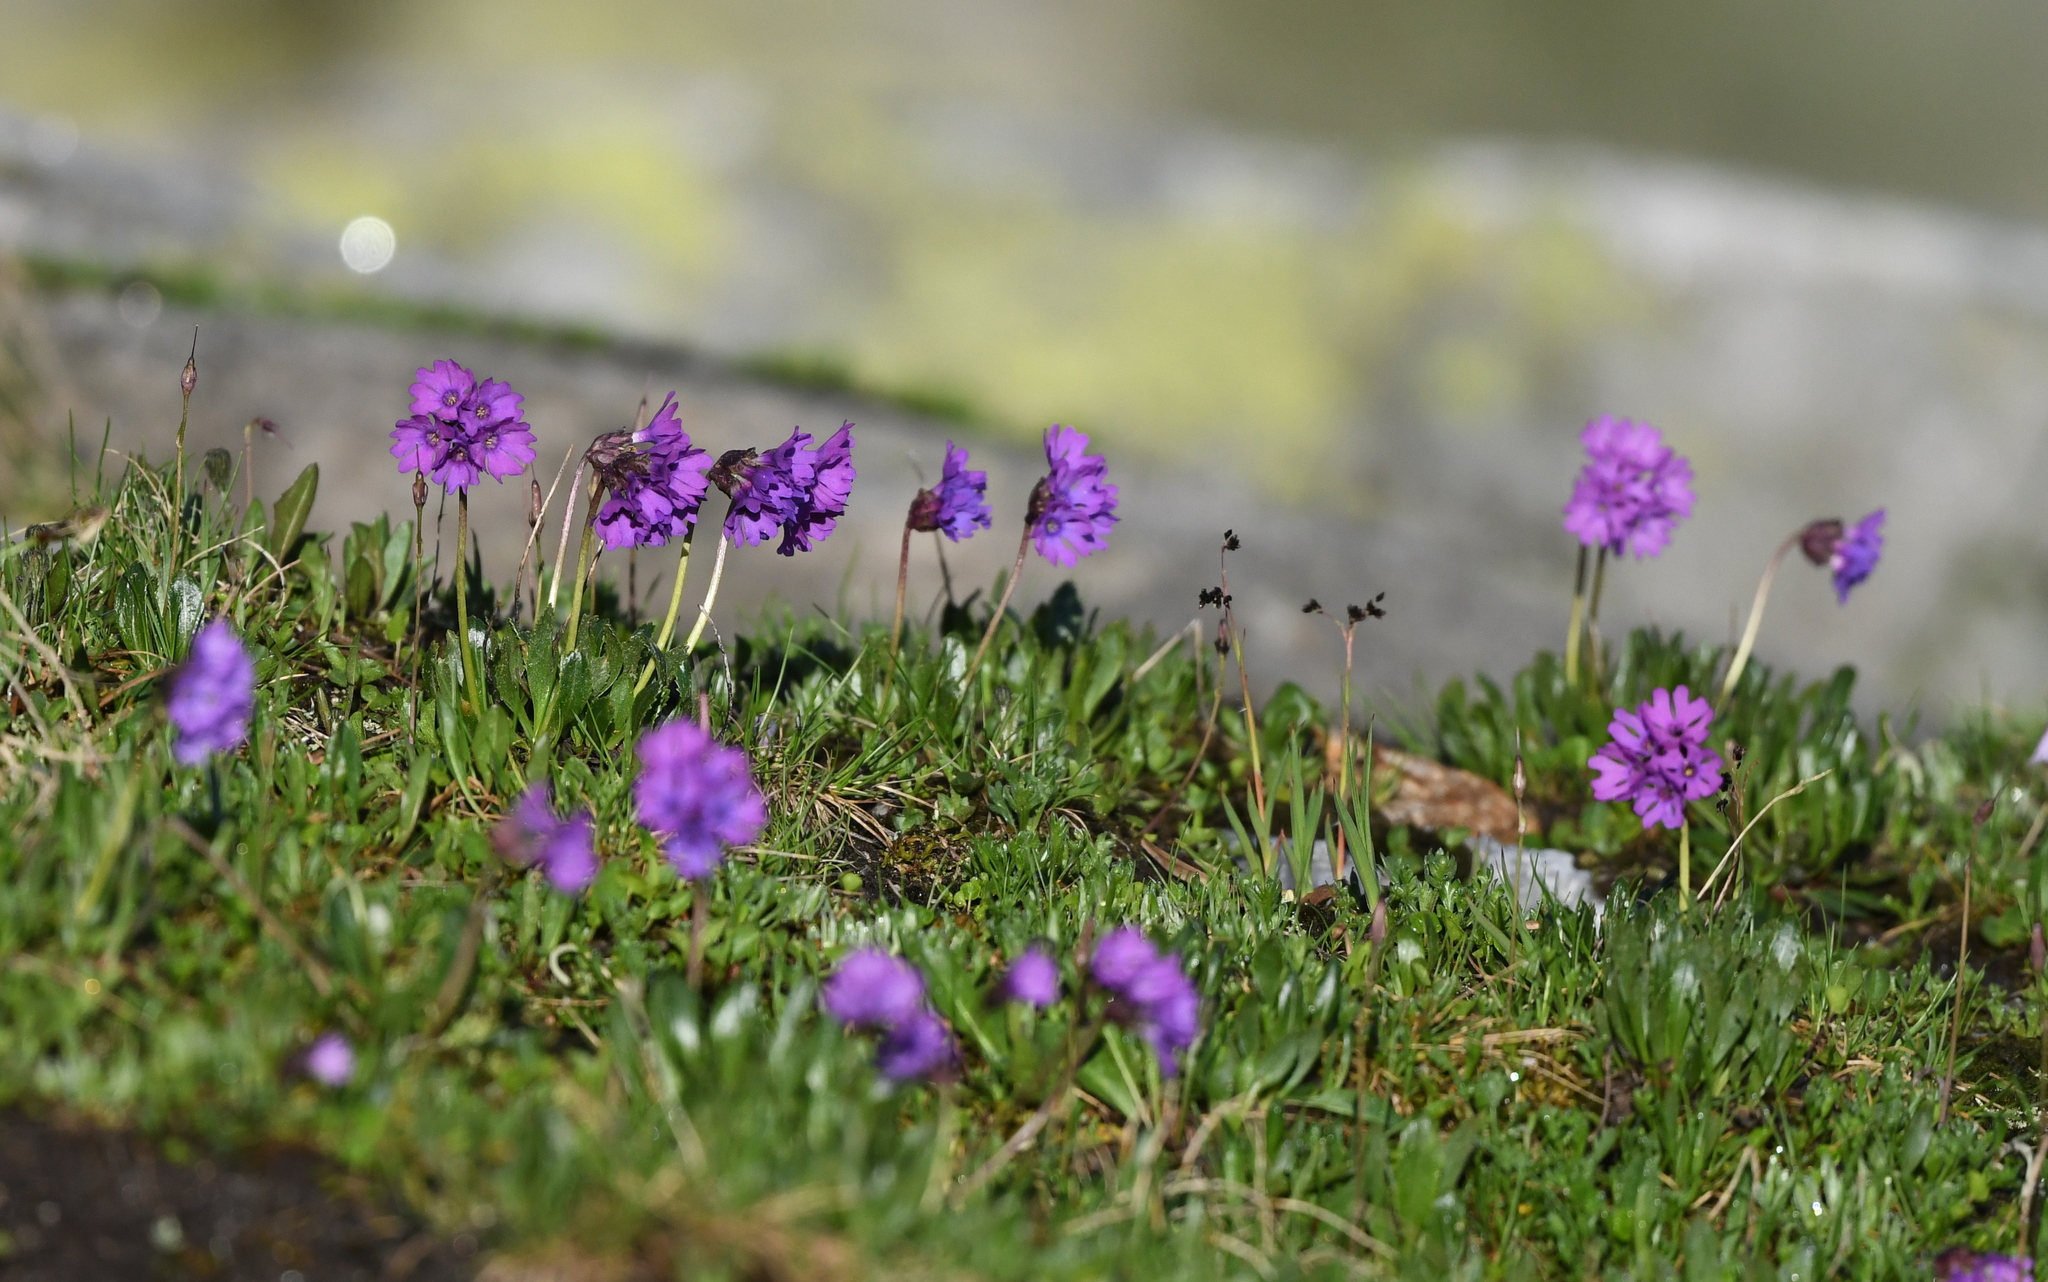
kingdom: Plantae
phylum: Tracheophyta
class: Magnoliopsida
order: Ericales
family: Primulaceae
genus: Primula
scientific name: Primula glutinosa
